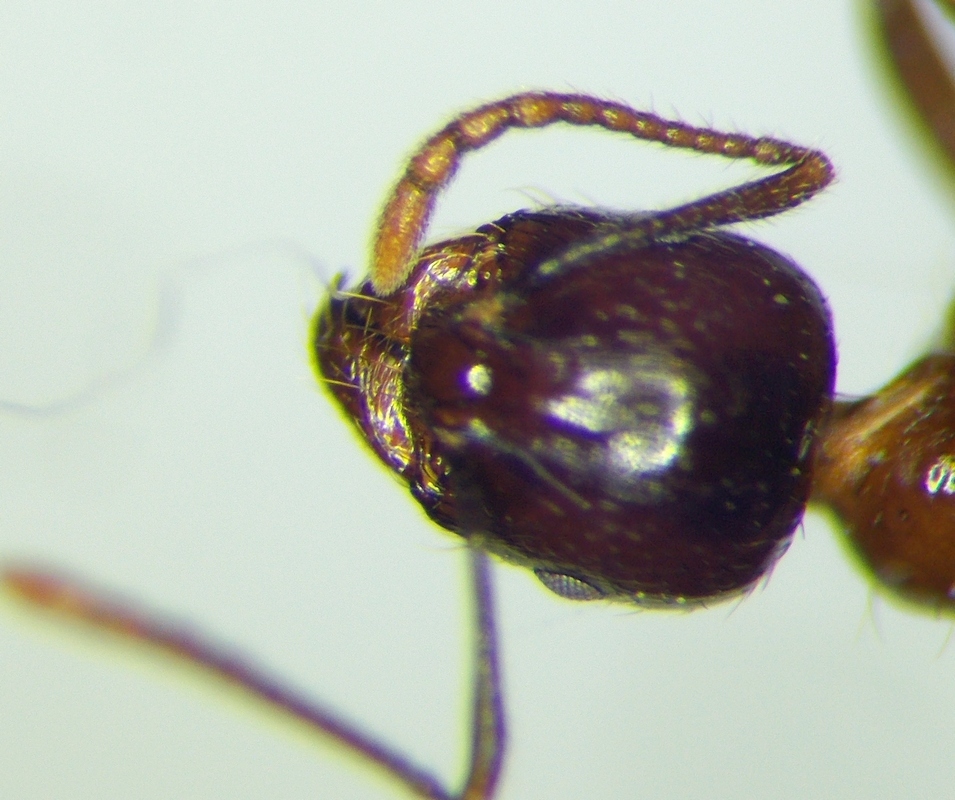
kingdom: Animalia
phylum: Arthropoda
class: Insecta
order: Hymenoptera
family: Formicidae
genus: Aphaenogaster
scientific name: Aphaenogaster subterraneoides
